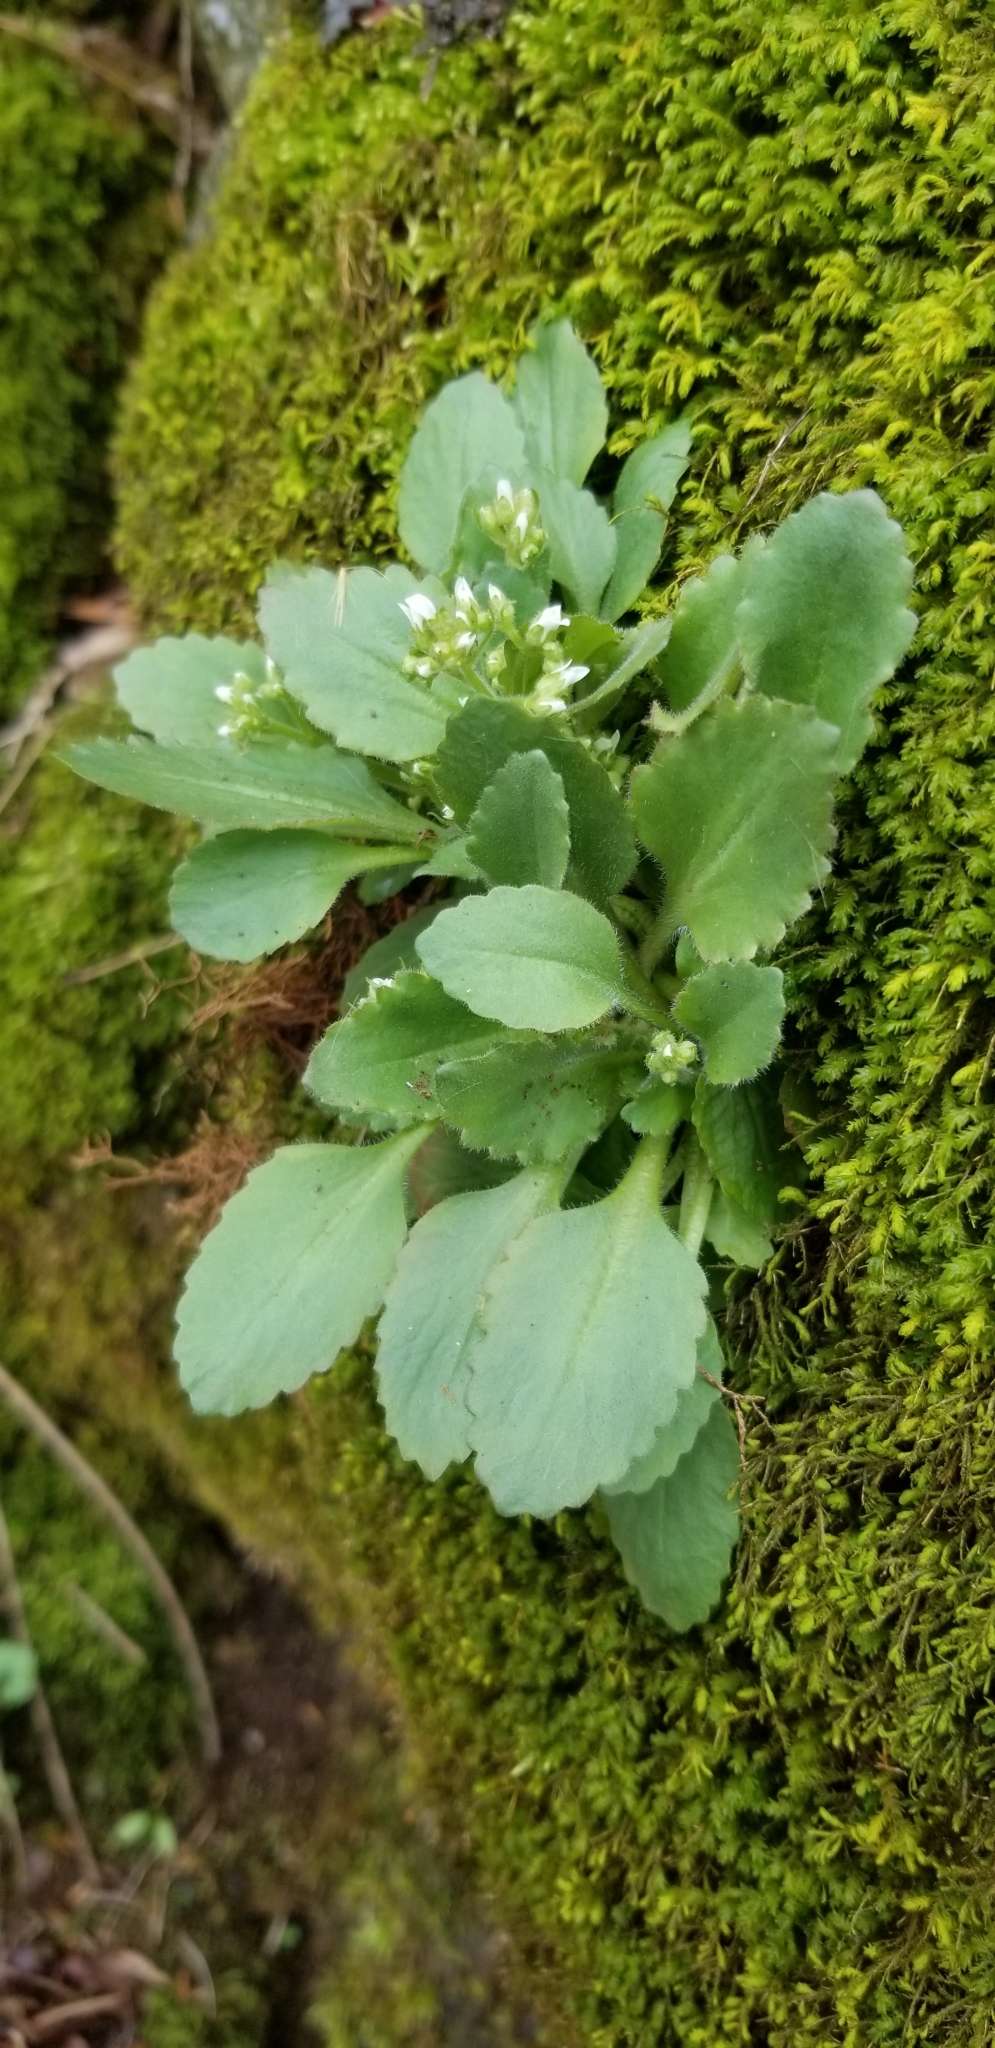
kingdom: Plantae
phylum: Tracheophyta
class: Magnoliopsida
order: Saxifragales
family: Saxifragaceae
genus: Micranthes
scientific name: Micranthes virginiensis
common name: Early saxifrage
